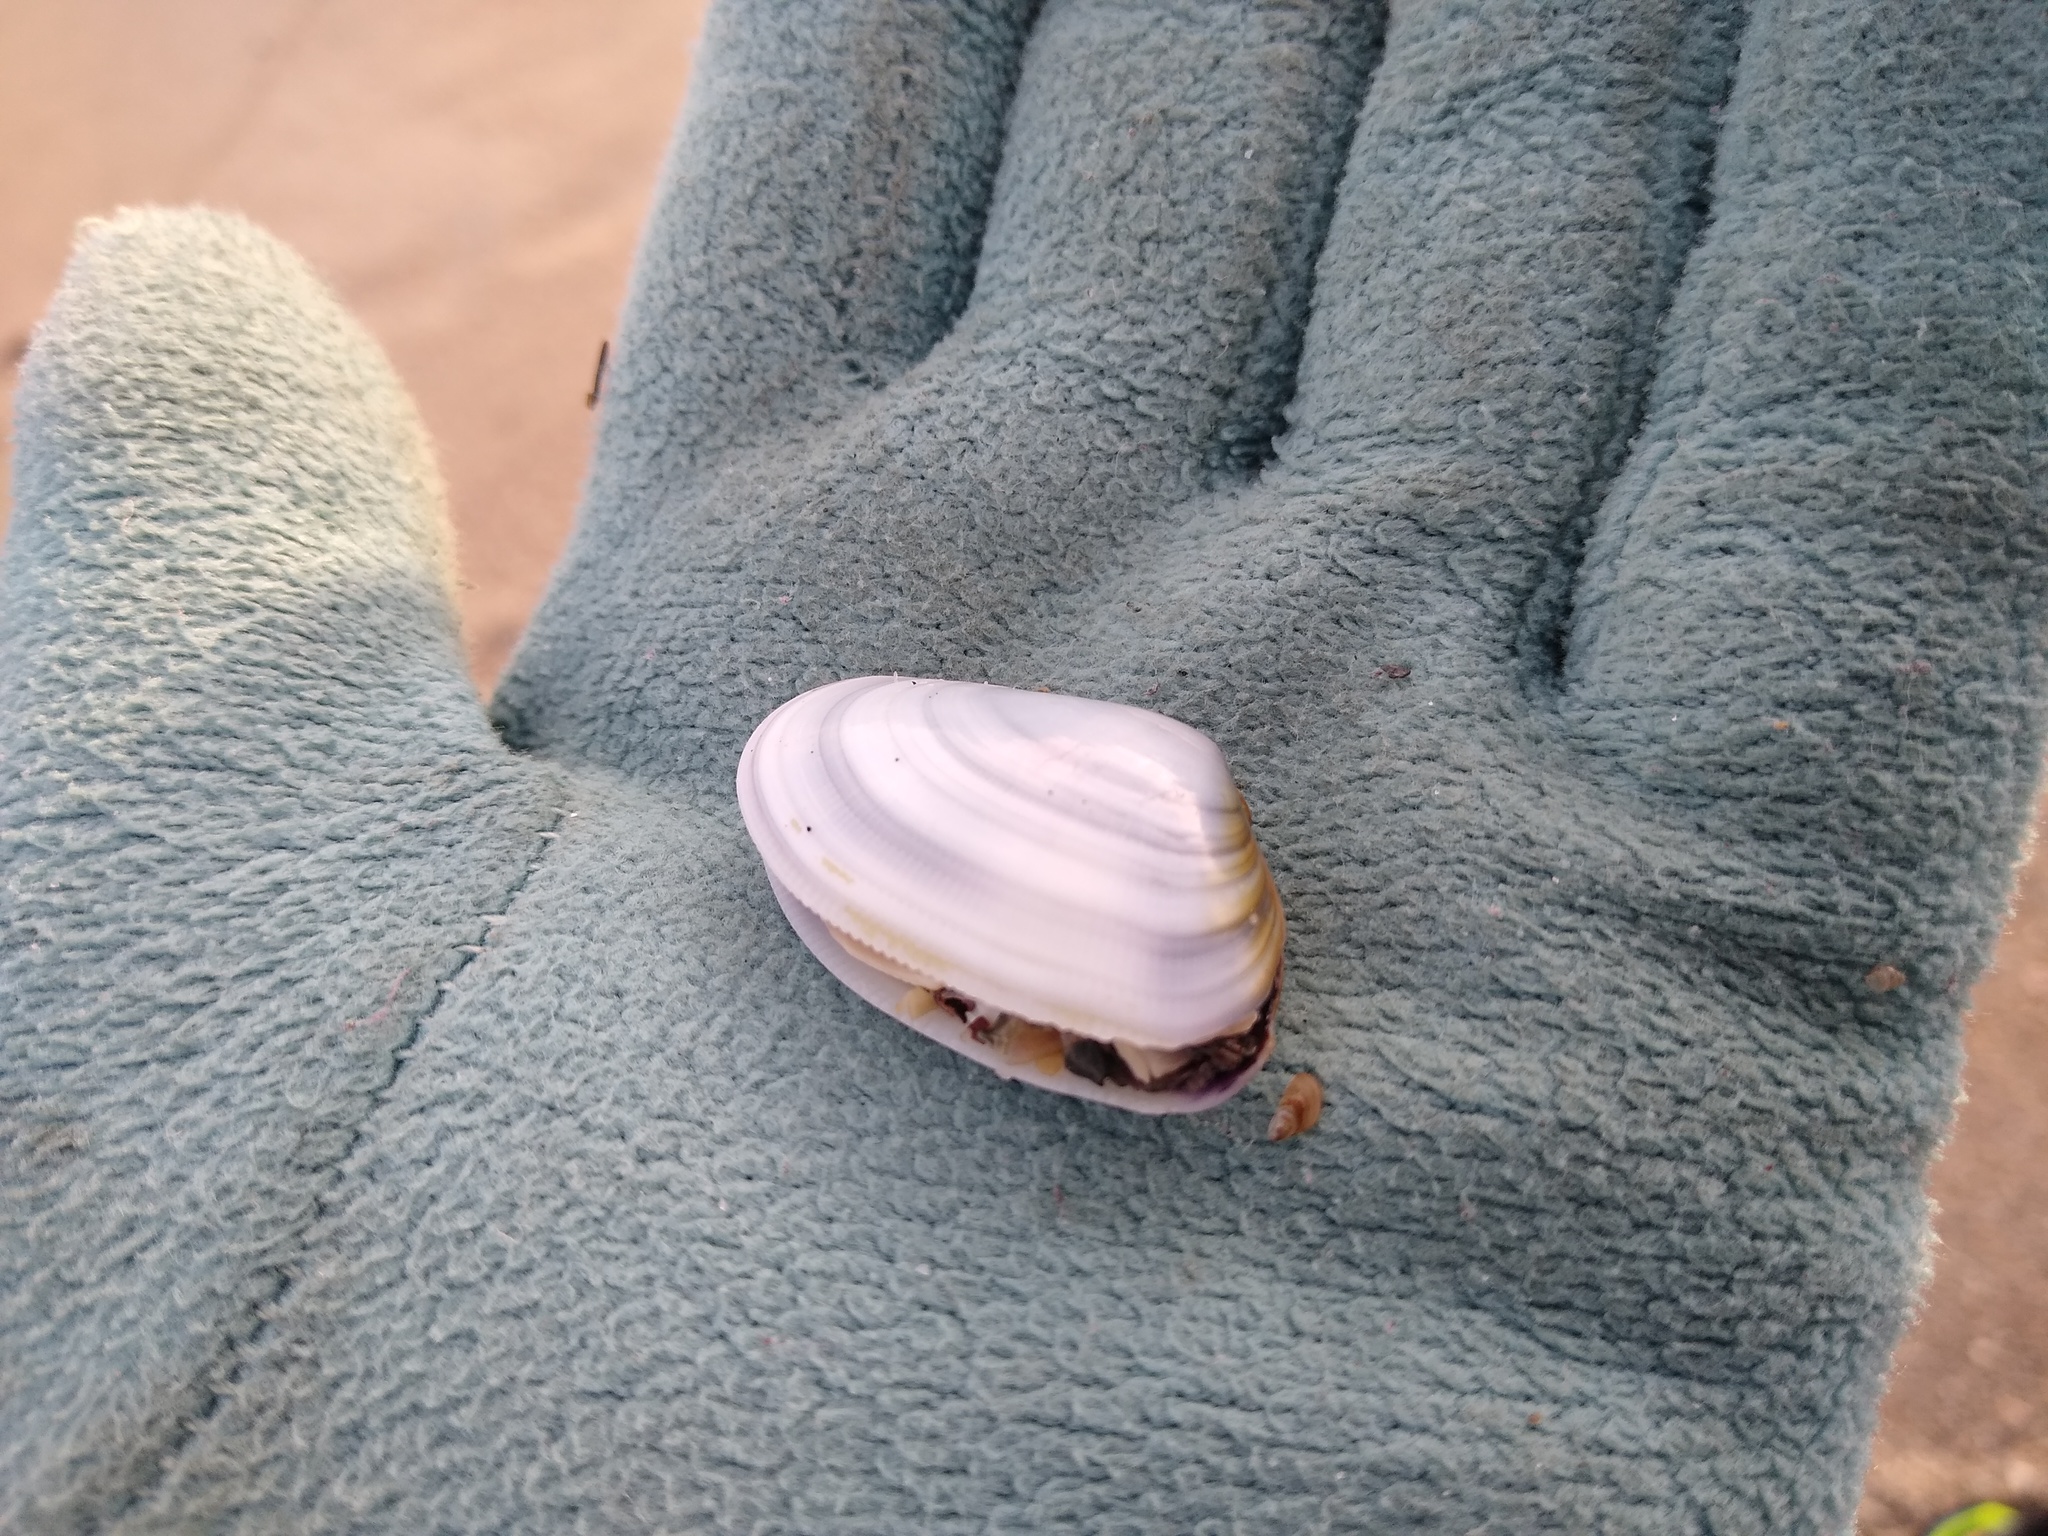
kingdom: Animalia
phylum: Mollusca
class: Bivalvia
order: Cardiida
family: Donacidae
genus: Donax
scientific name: Donax trunculus
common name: Truncate donax
